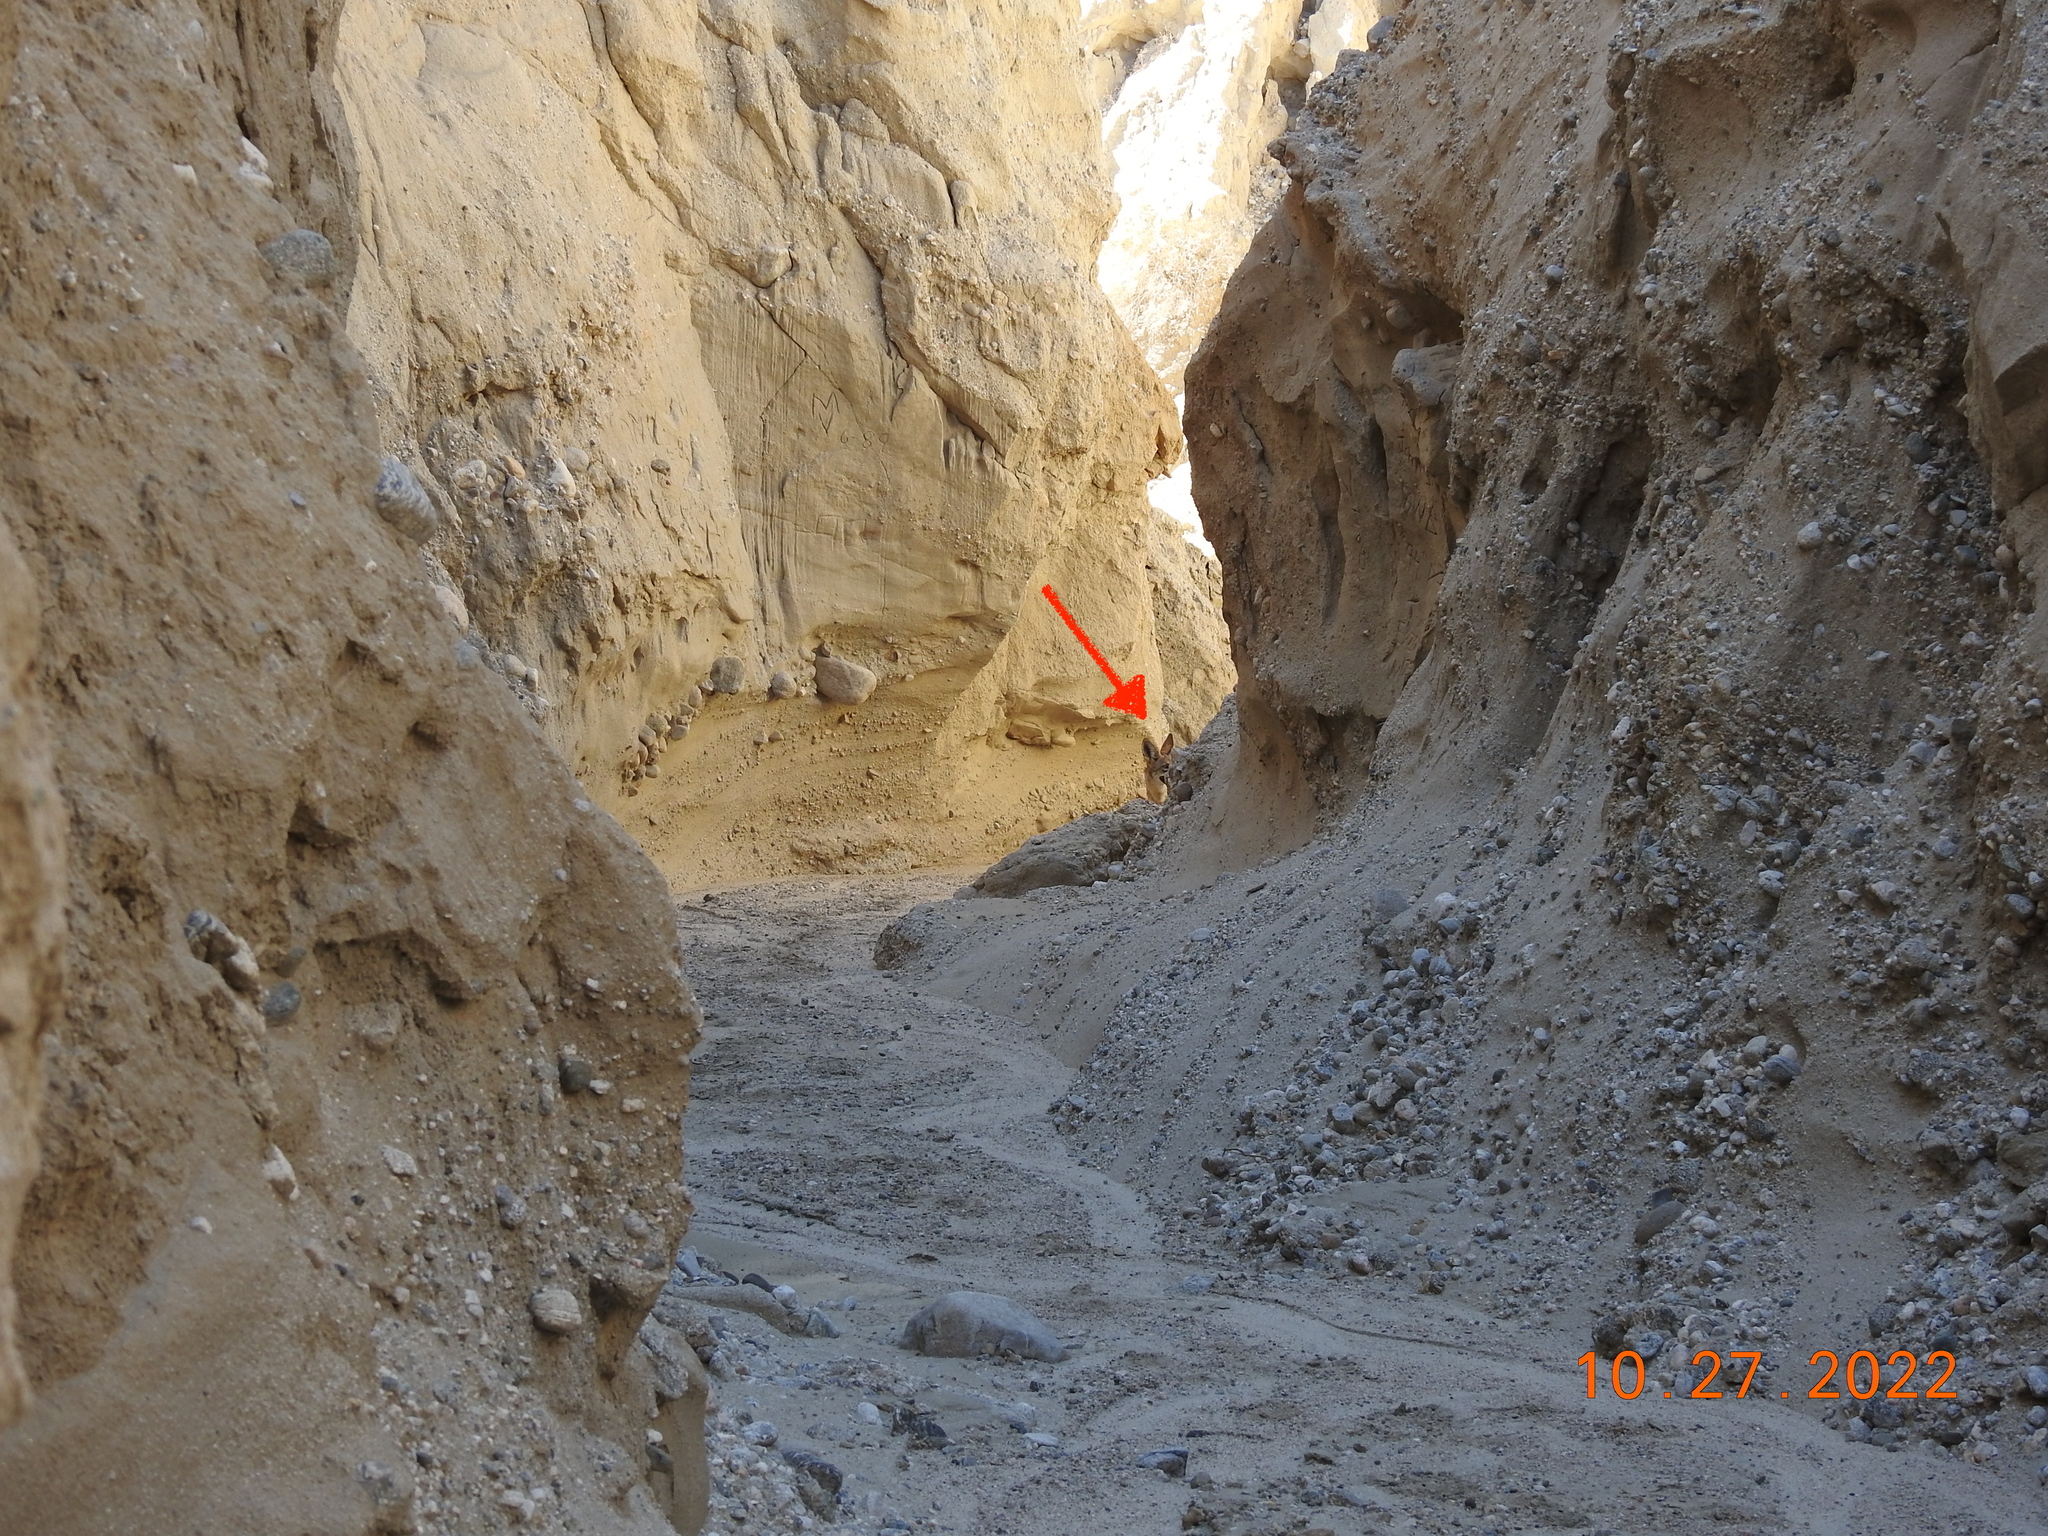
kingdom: Animalia
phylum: Chordata
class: Mammalia
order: Carnivora
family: Canidae
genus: Canis
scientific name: Canis latrans
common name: Coyote
